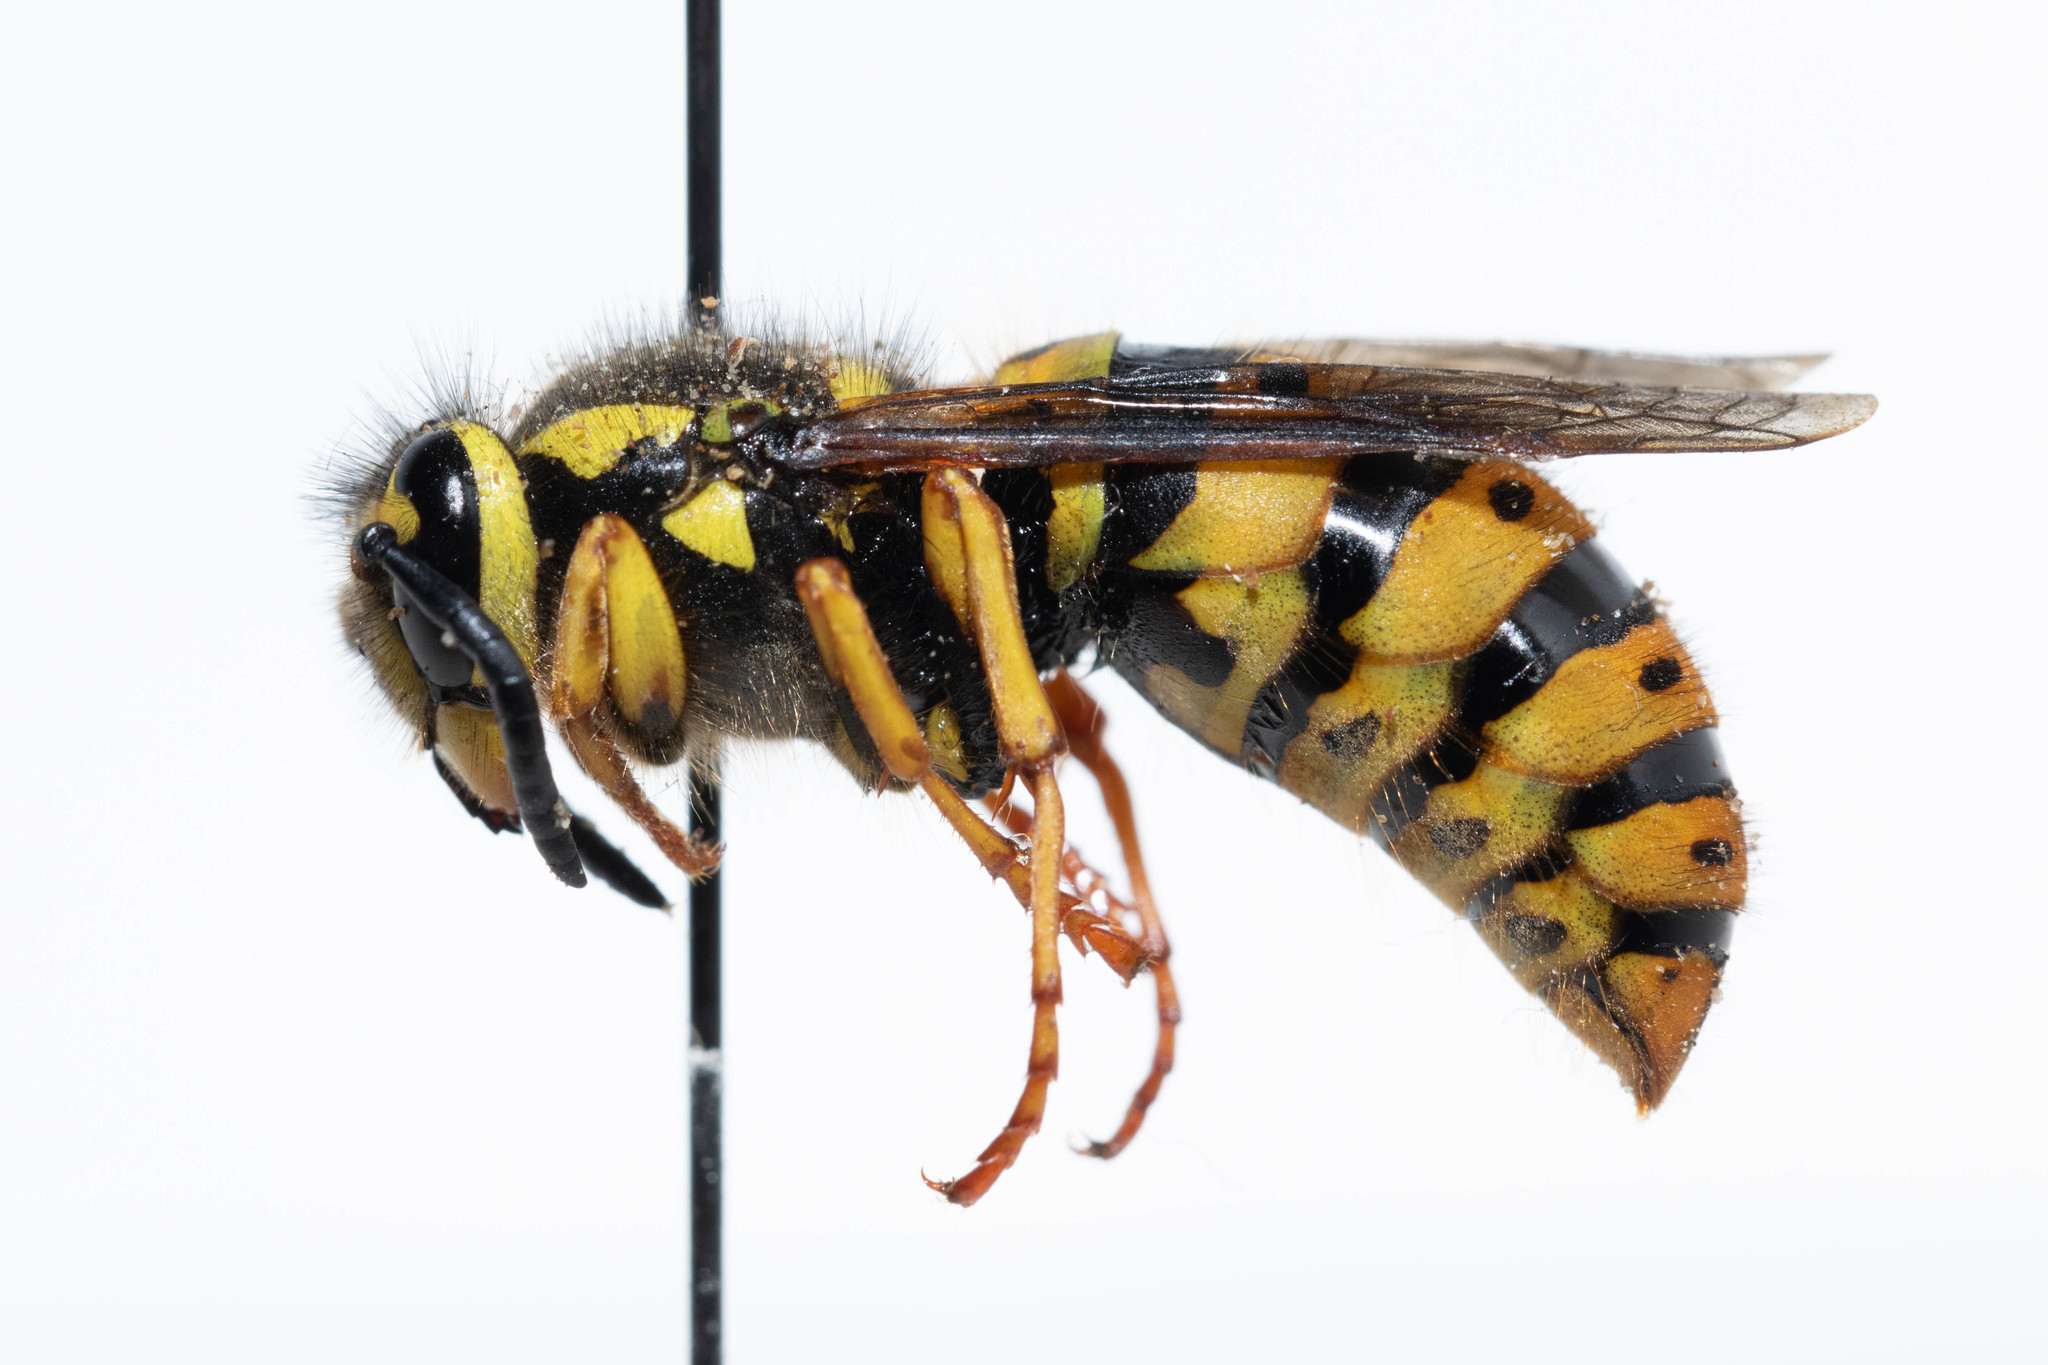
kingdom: Animalia
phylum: Arthropoda
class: Insecta
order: Hymenoptera
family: Vespidae
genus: Vespula
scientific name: Vespula pensylvanica
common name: Western yellowjacket
